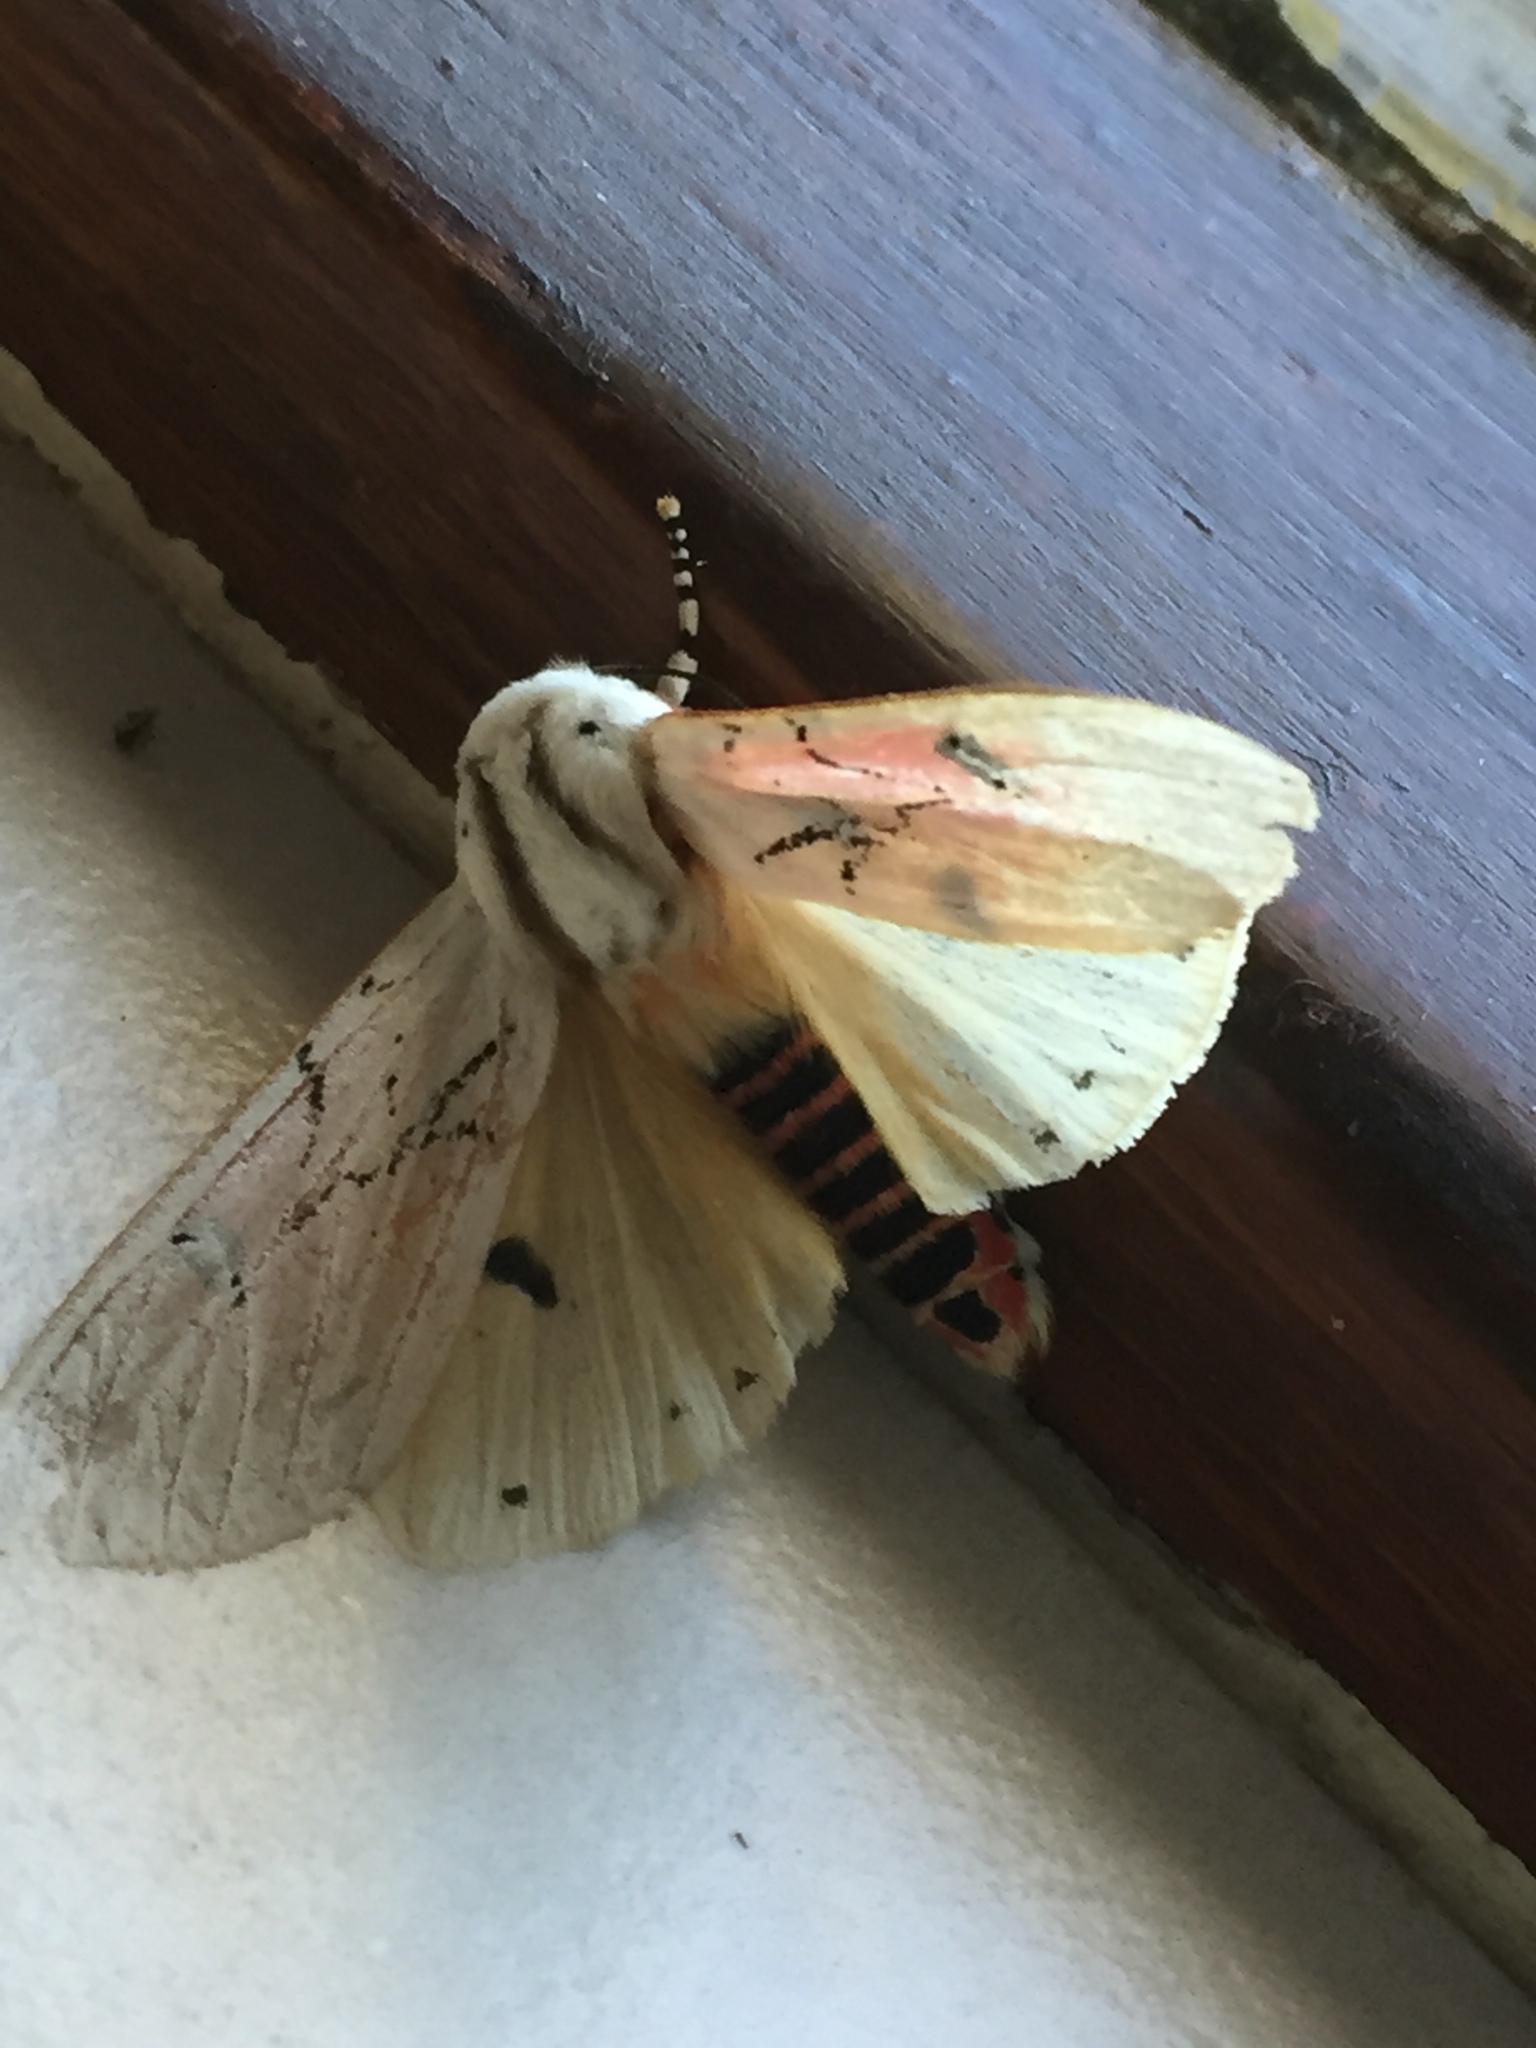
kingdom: Animalia
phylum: Arthropoda
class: Insecta
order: Lepidoptera
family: Erebidae
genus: Rhodogastria
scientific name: Rhodogastria amasis
